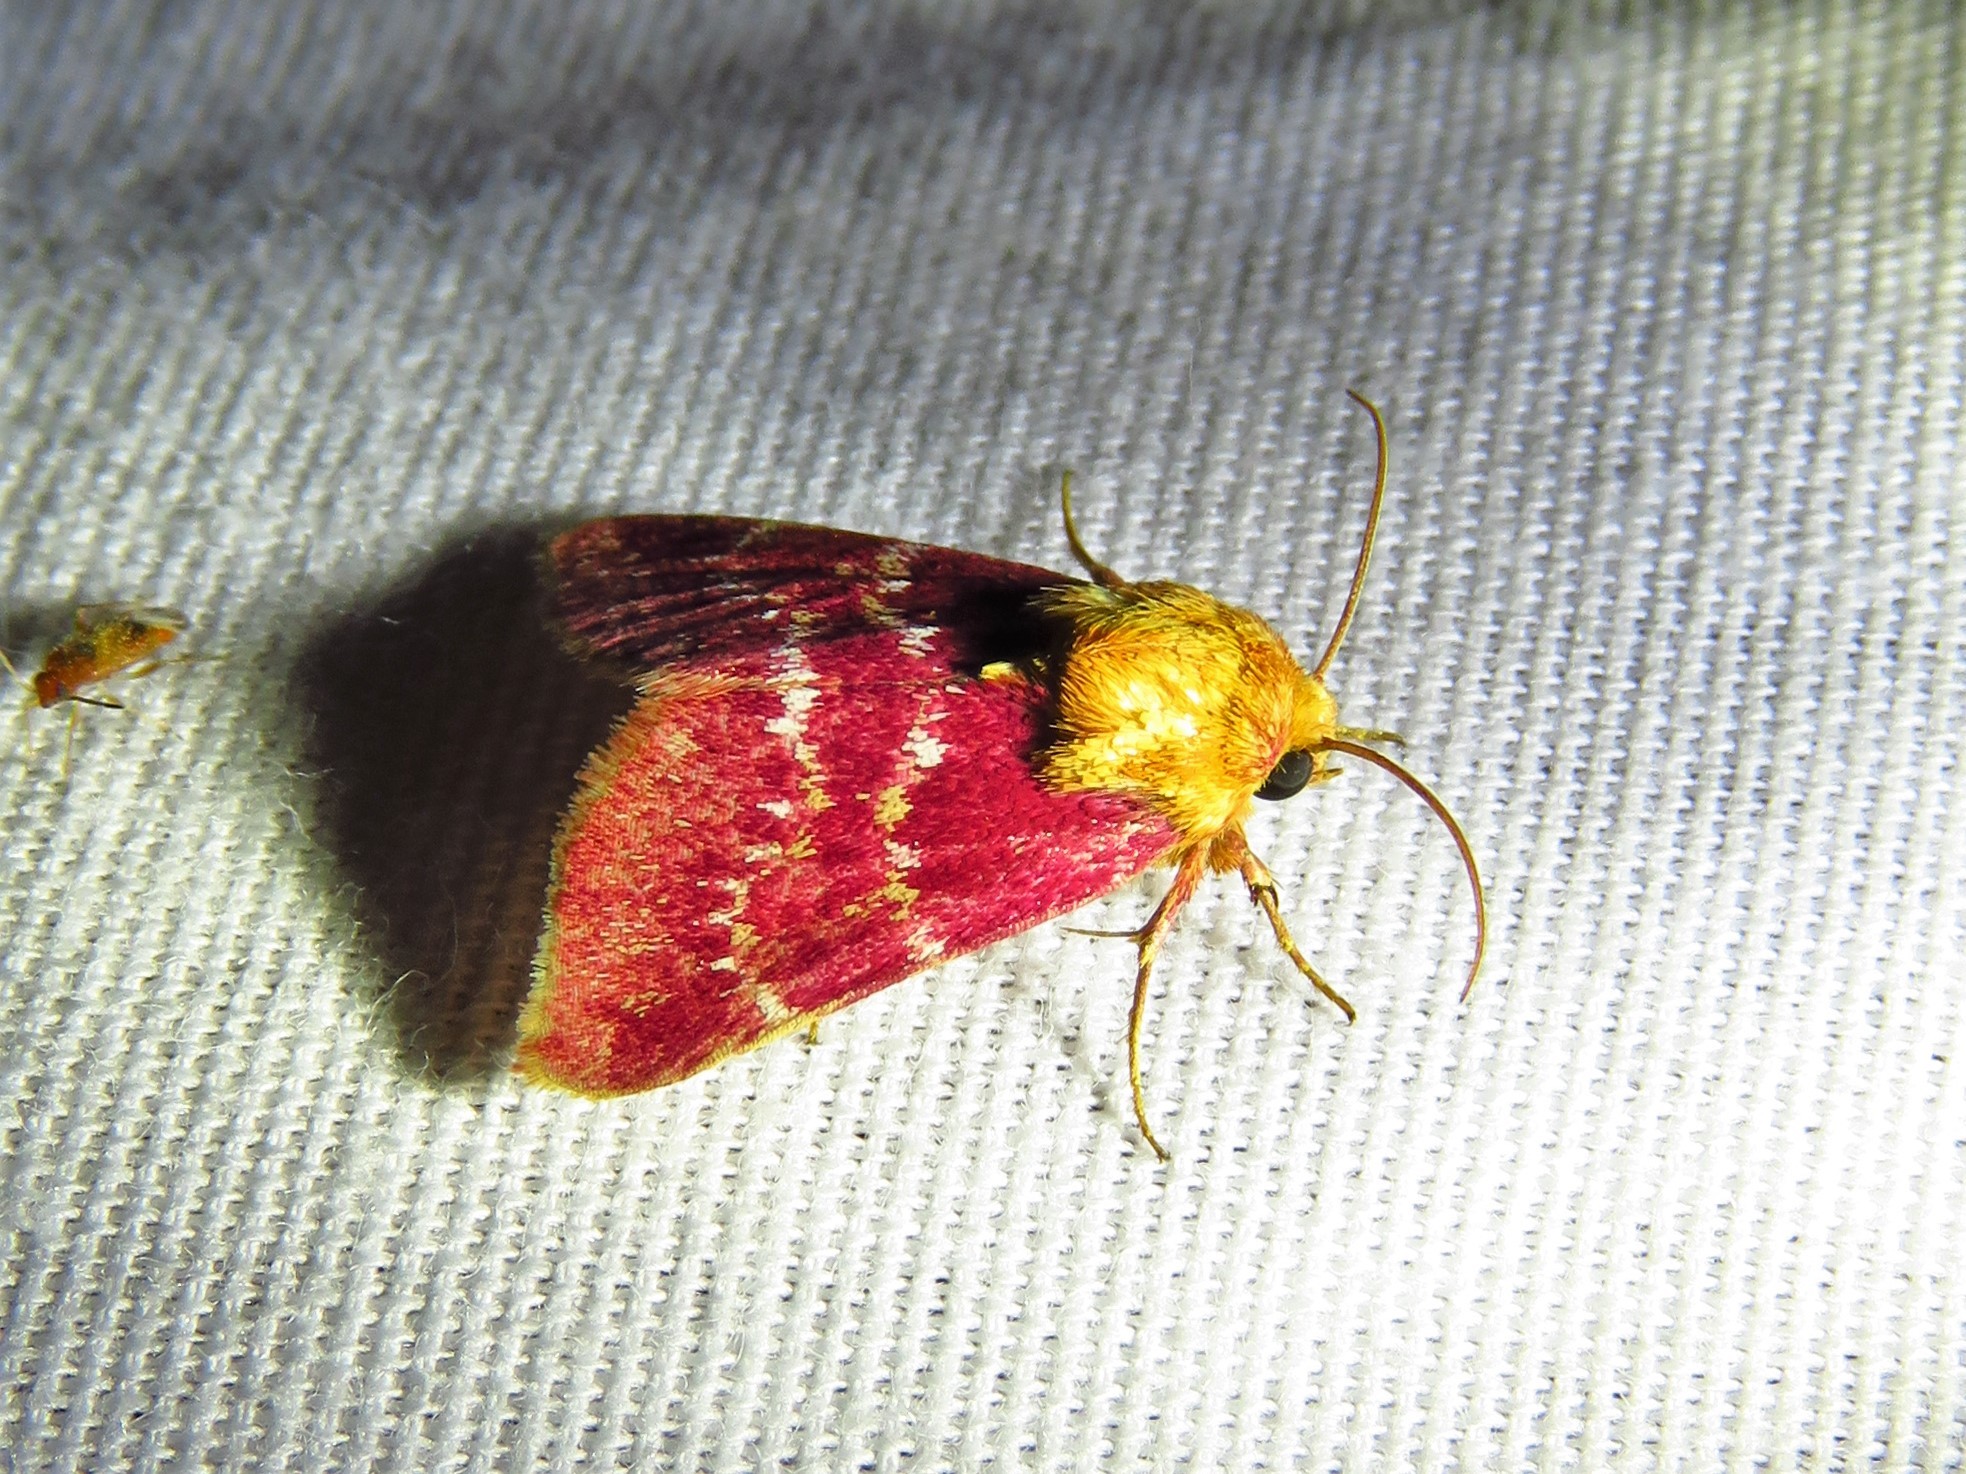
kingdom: Animalia
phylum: Arthropoda
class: Insecta
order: Lepidoptera
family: Noctuidae
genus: Schinia
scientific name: Schinia volupia
